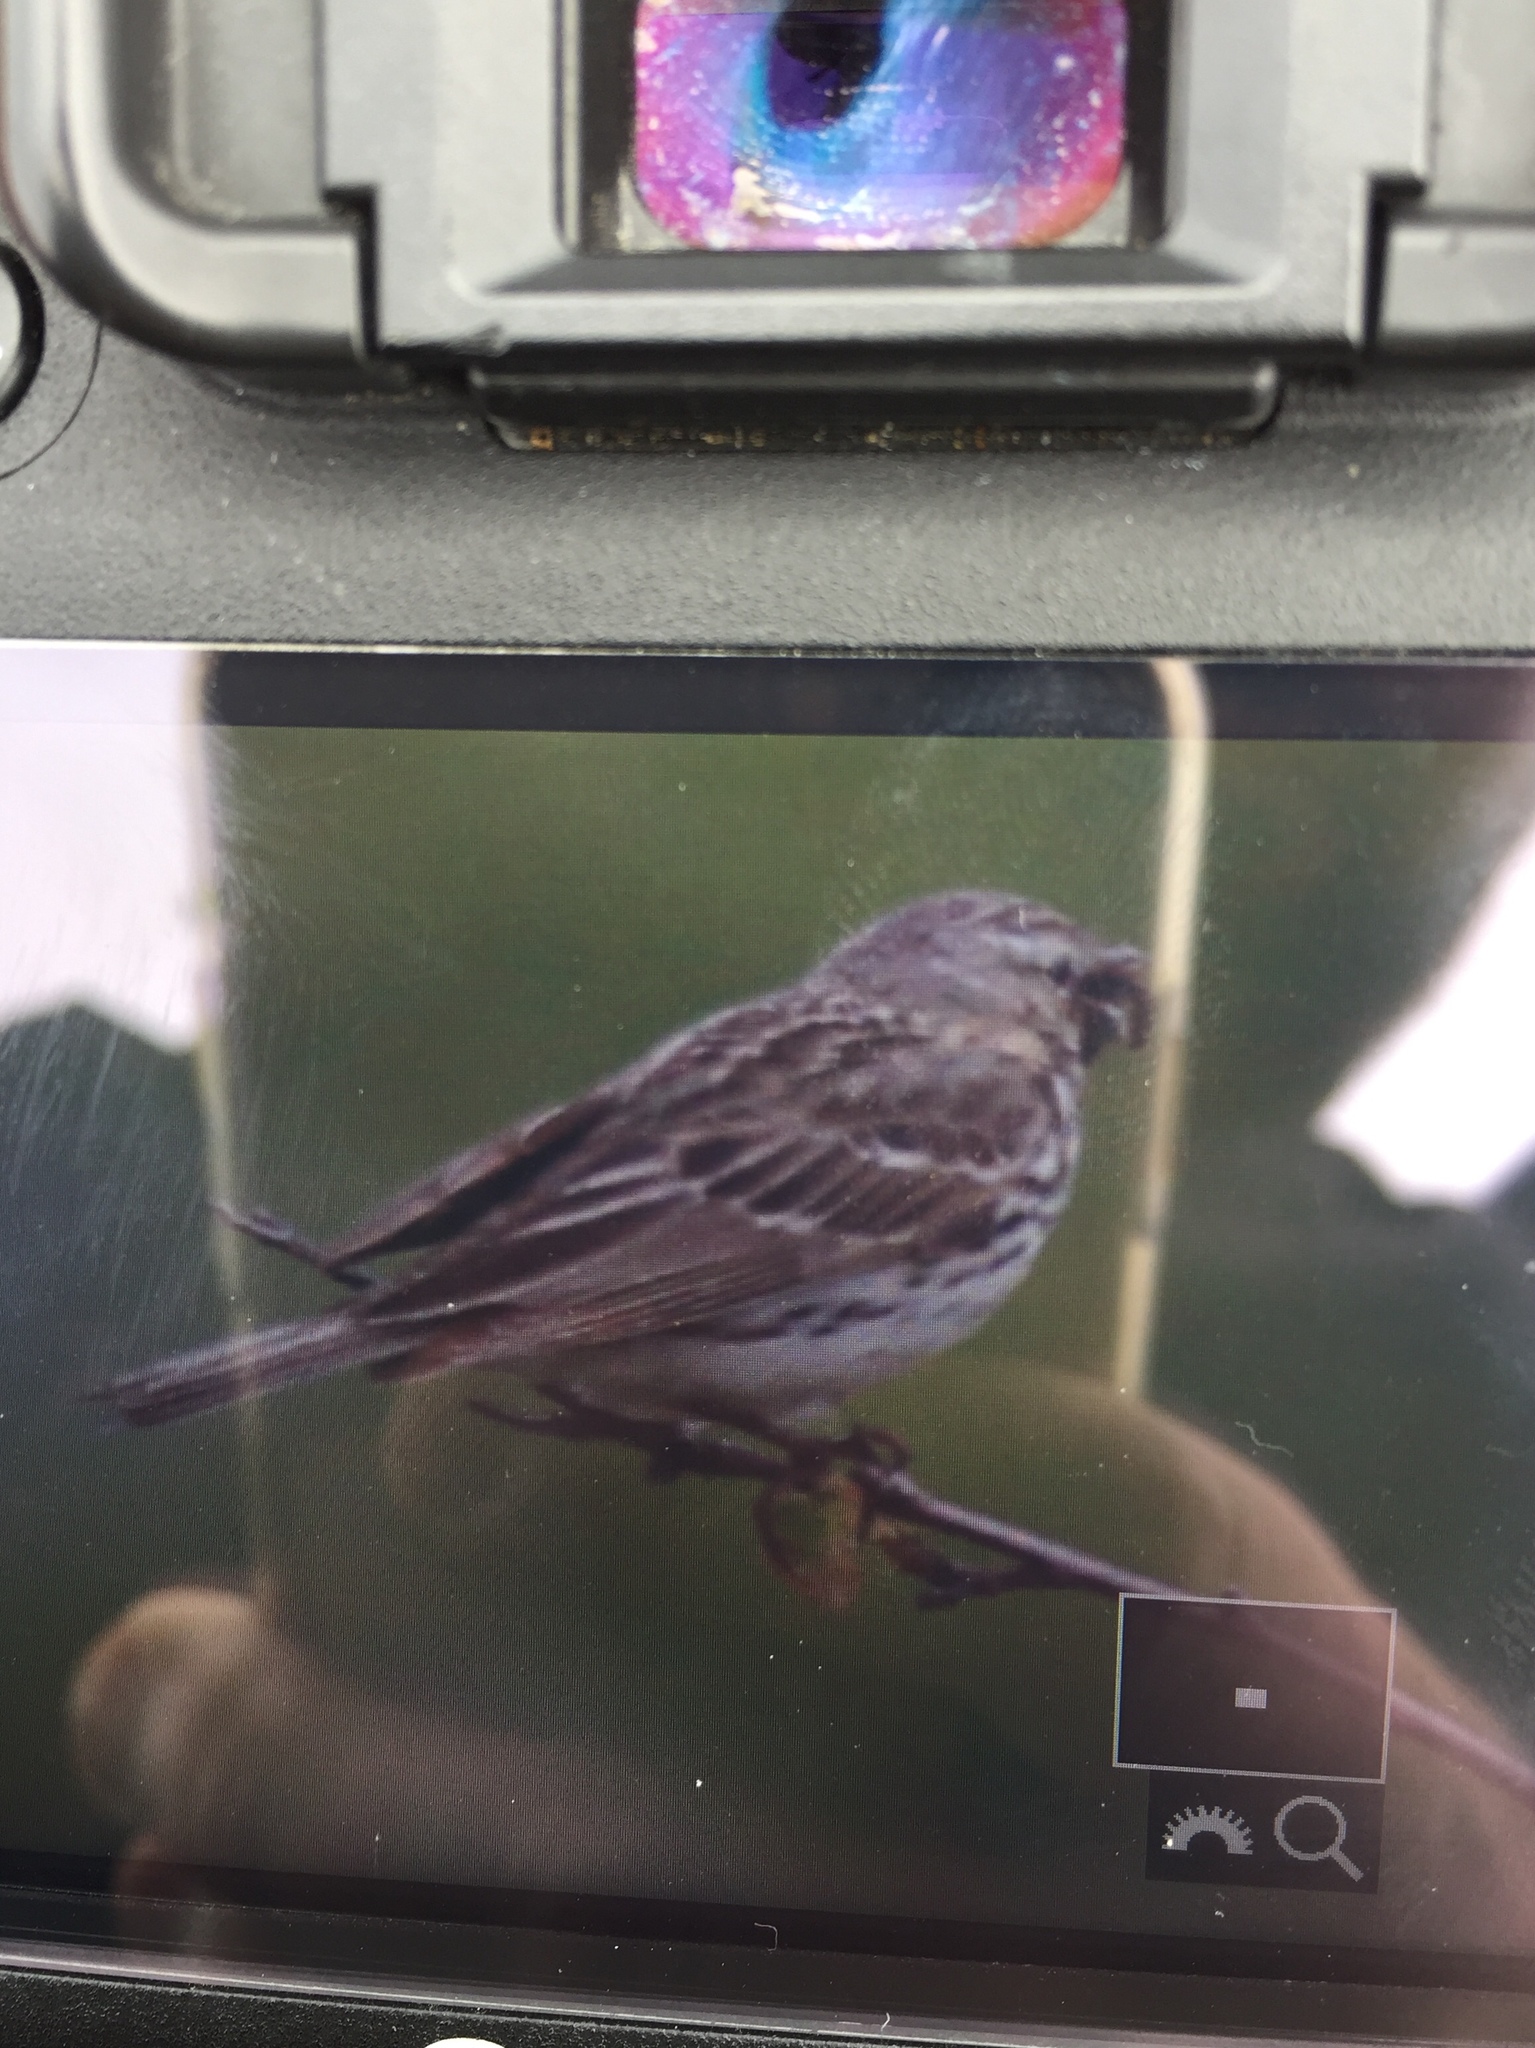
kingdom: Animalia
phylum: Chordata
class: Aves
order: Passeriformes
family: Motacillidae
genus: Anthus
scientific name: Anthus pratensis
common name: Meadow pipit
